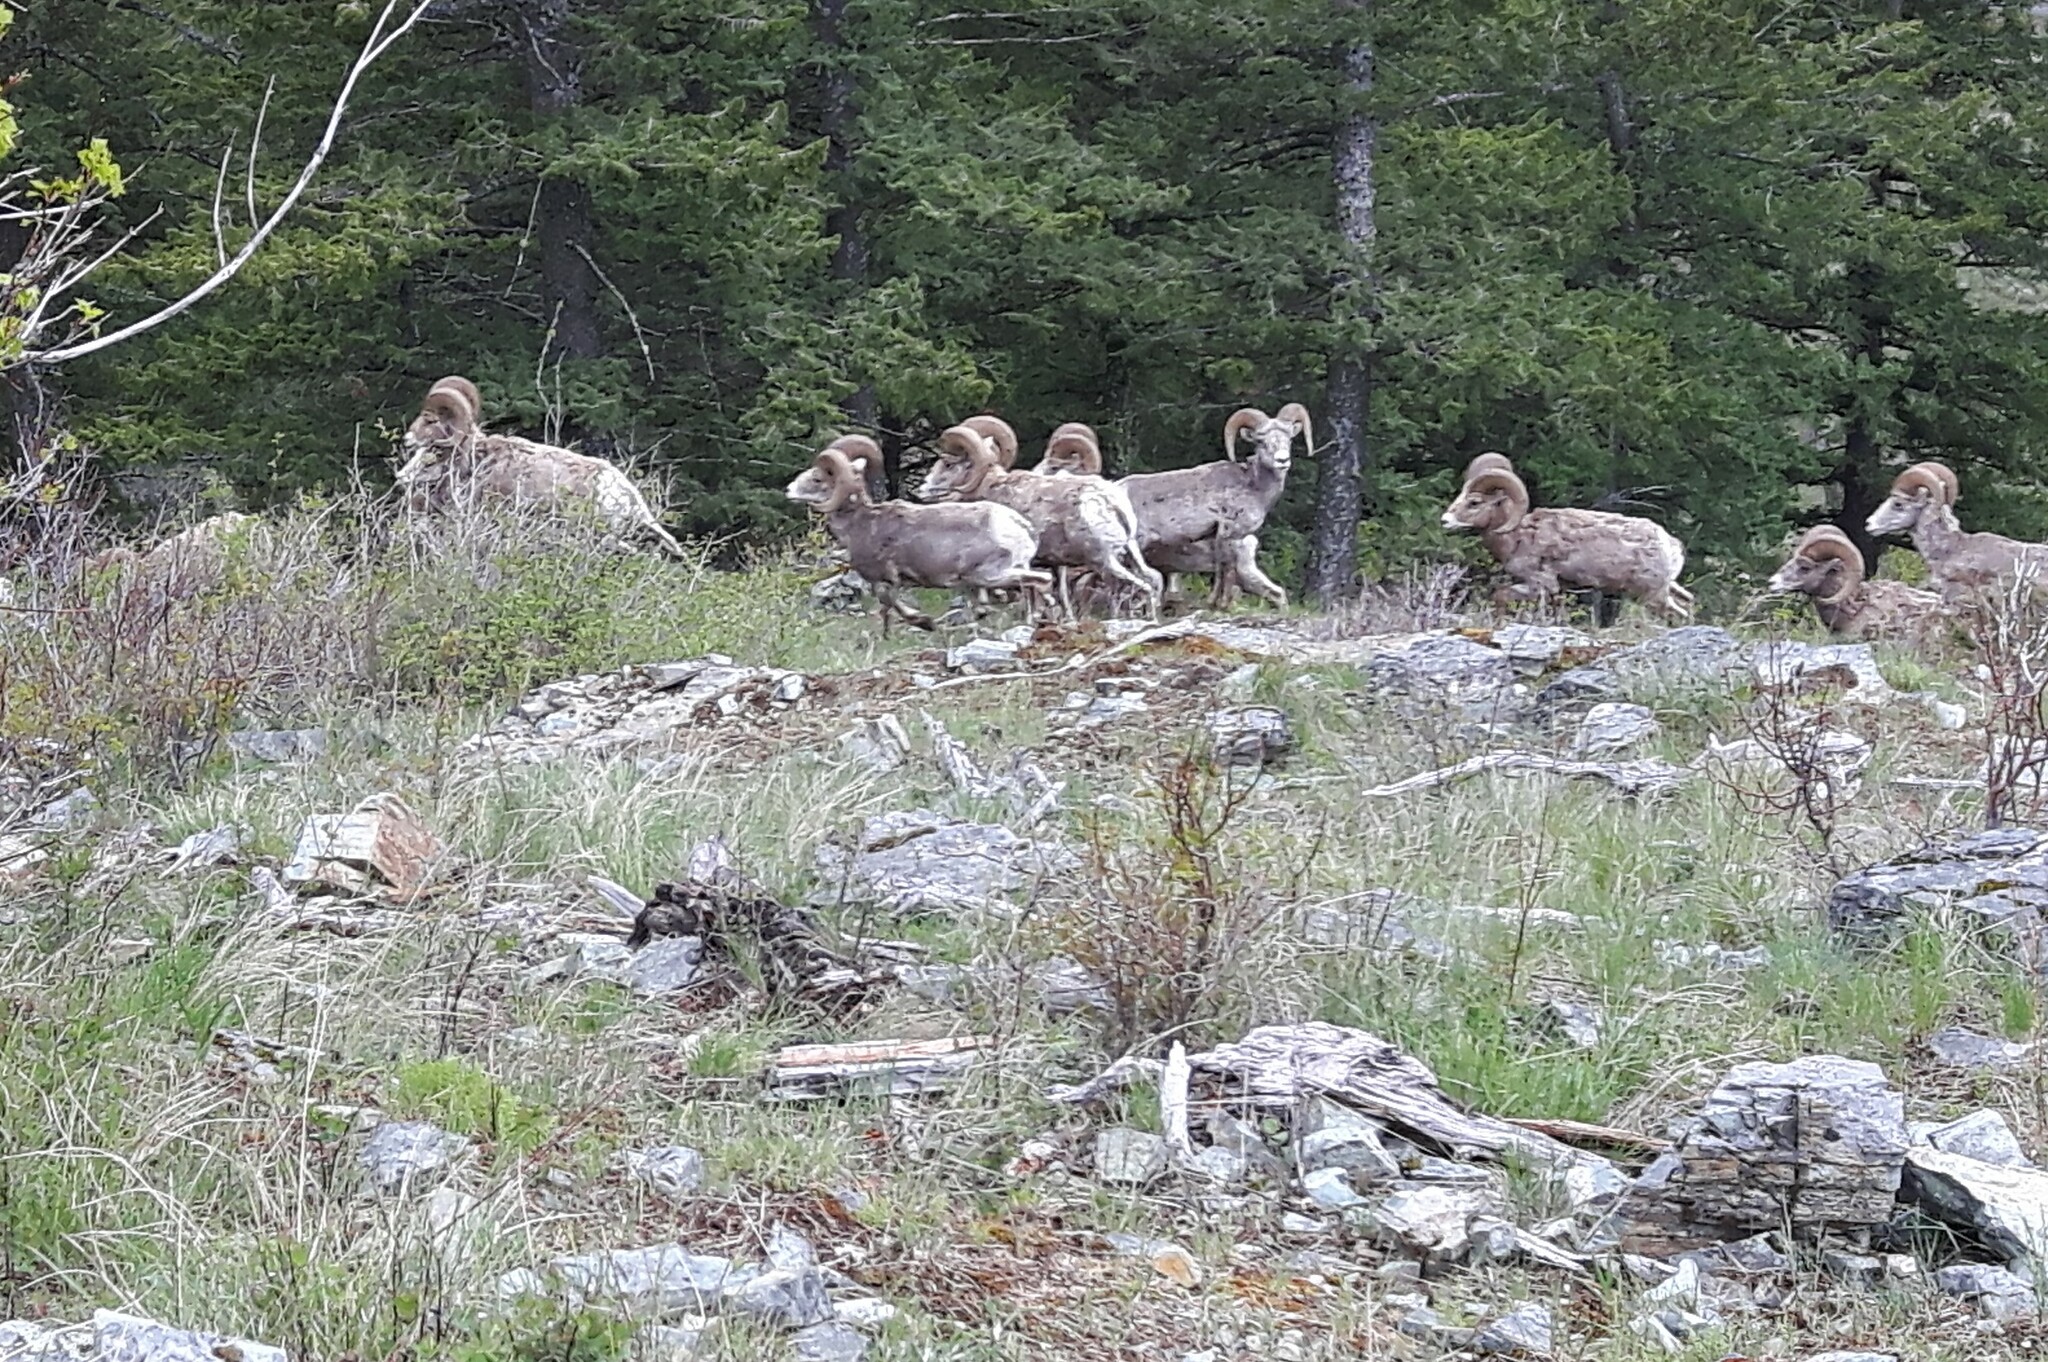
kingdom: Animalia
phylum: Chordata
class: Mammalia
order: Artiodactyla
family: Bovidae
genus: Ovis
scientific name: Ovis canadensis
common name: Bighorn sheep
